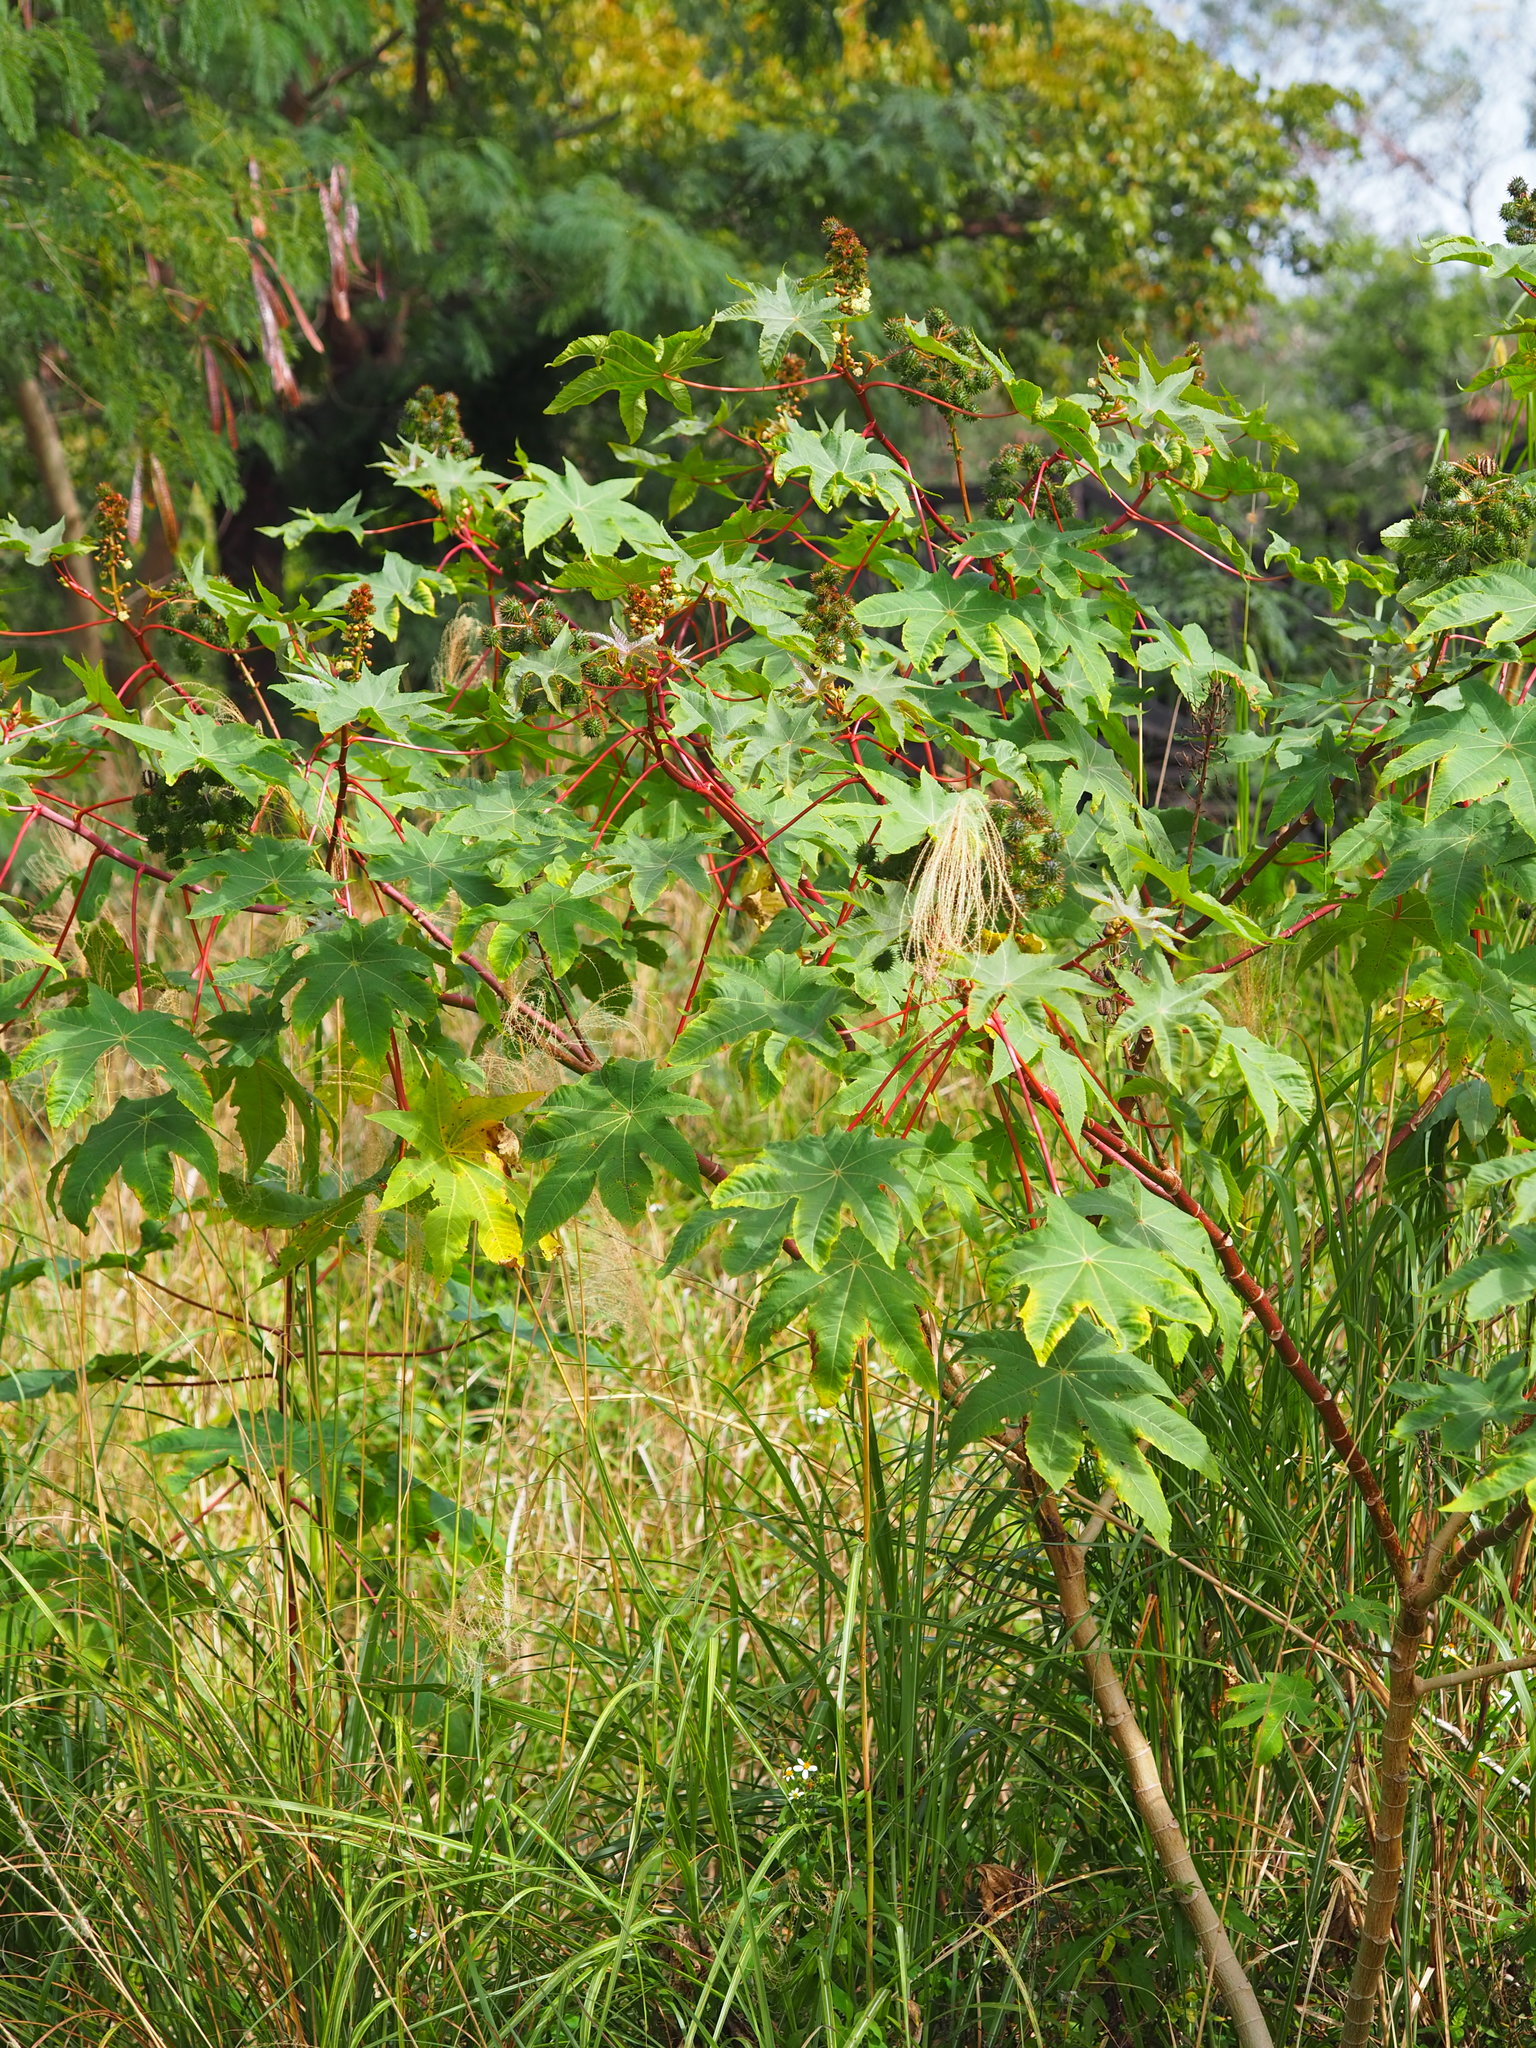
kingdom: Plantae
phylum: Tracheophyta
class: Magnoliopsida
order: Malpighiales
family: Euphorbiaceae
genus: Ricinus
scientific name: Ricinus communis
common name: Castor-oil-plant
